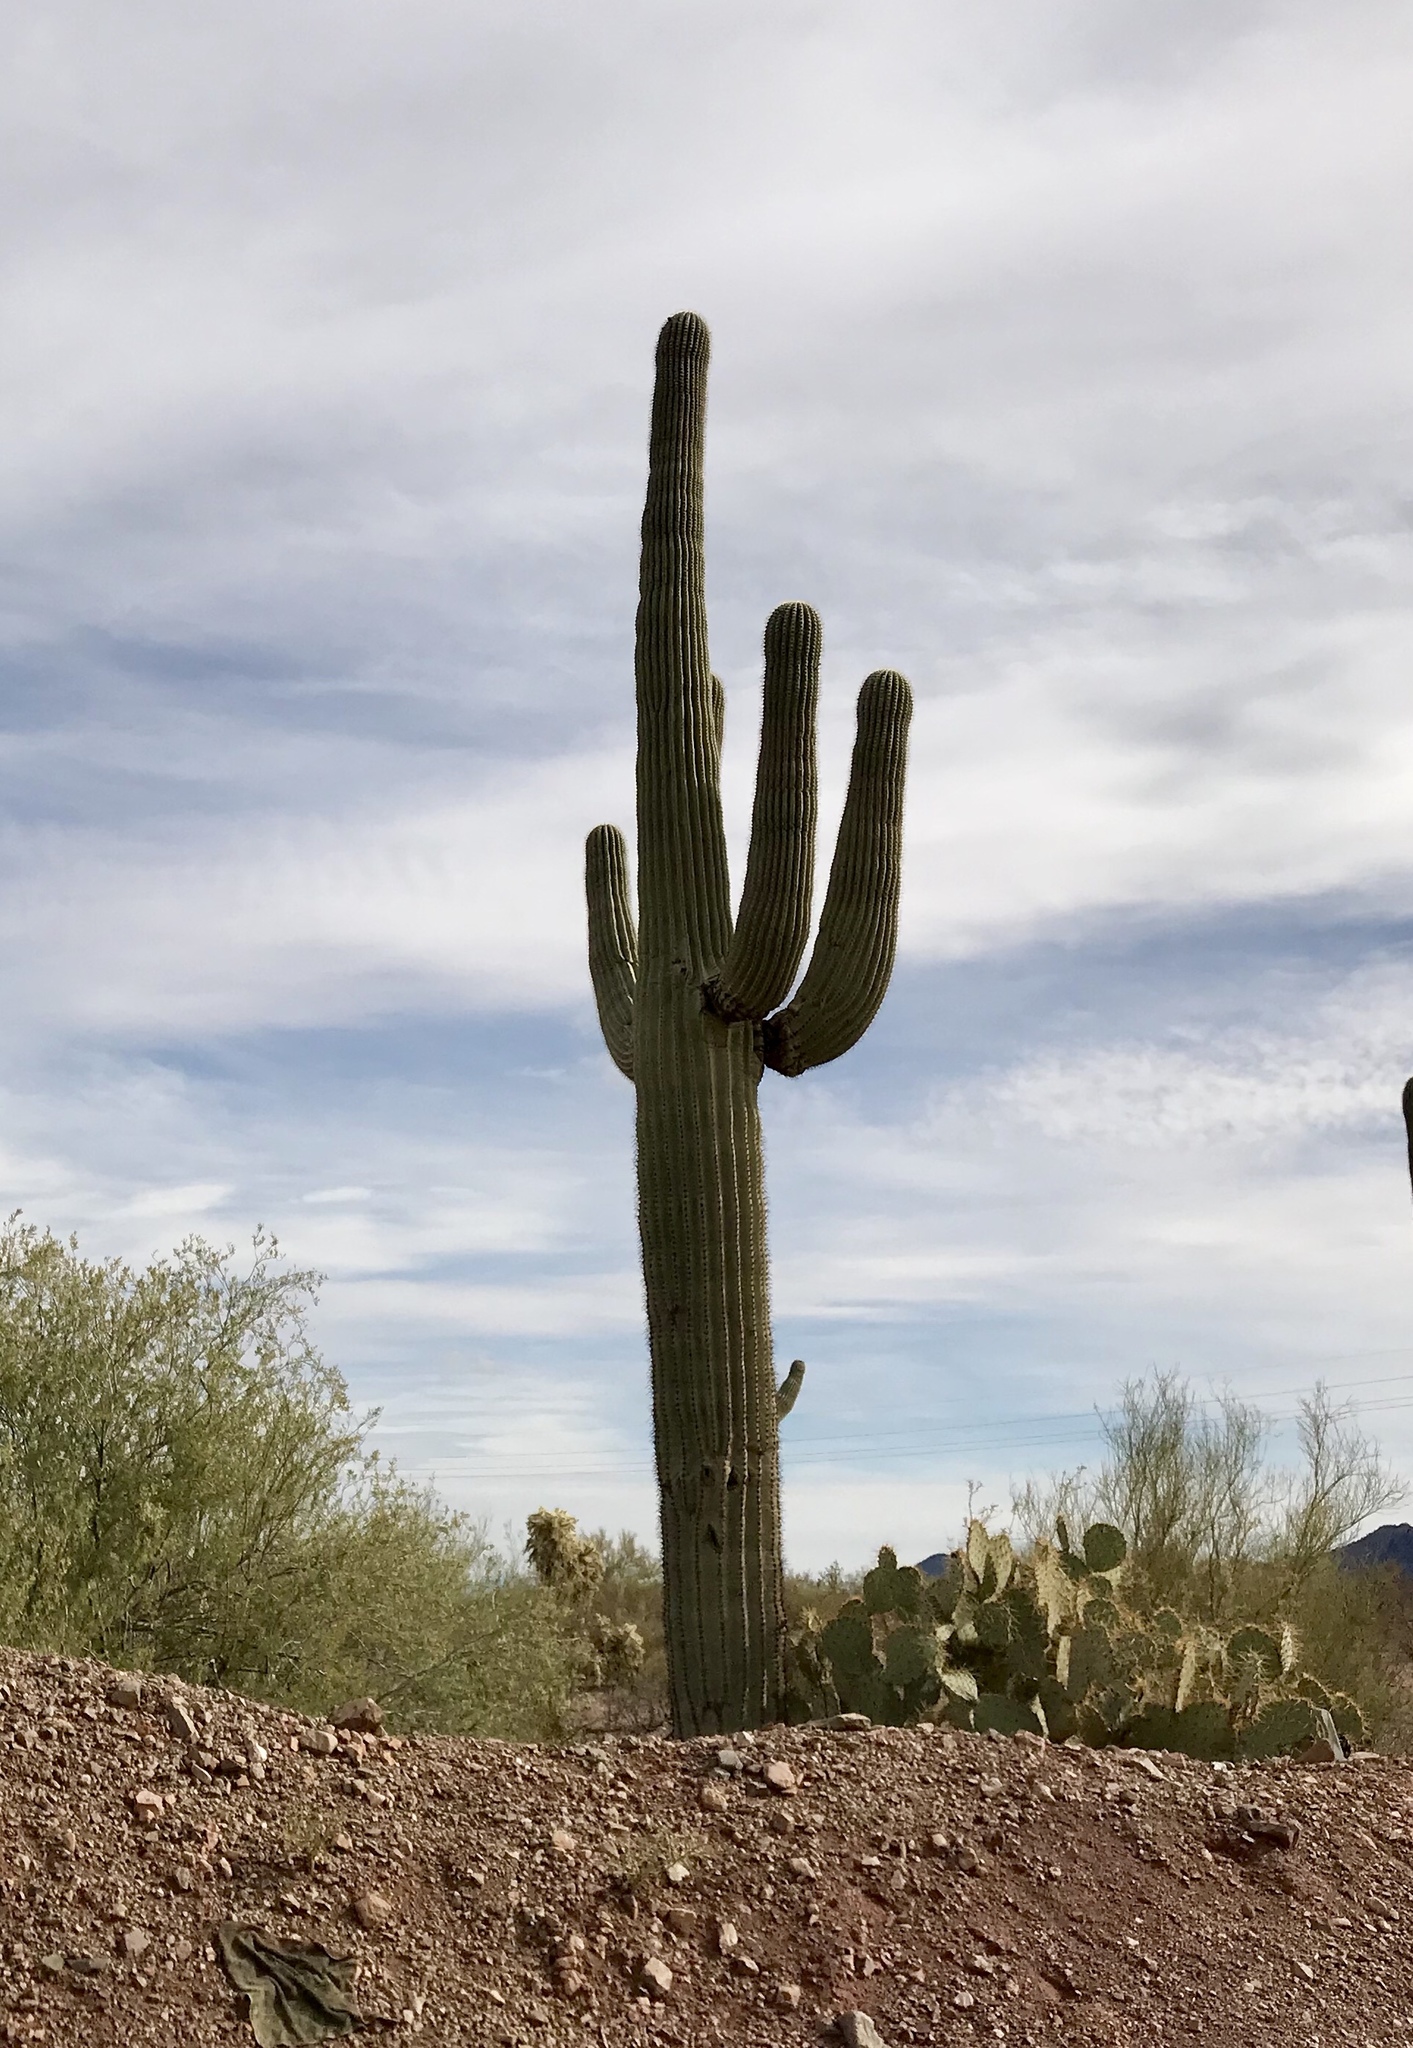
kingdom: Plantae
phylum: Tracheophyta
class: Magnoliopsida
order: Caryophyllales
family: Cactaceae
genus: Carnegiea
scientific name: Carnegiea gigantea
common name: Saguaro
